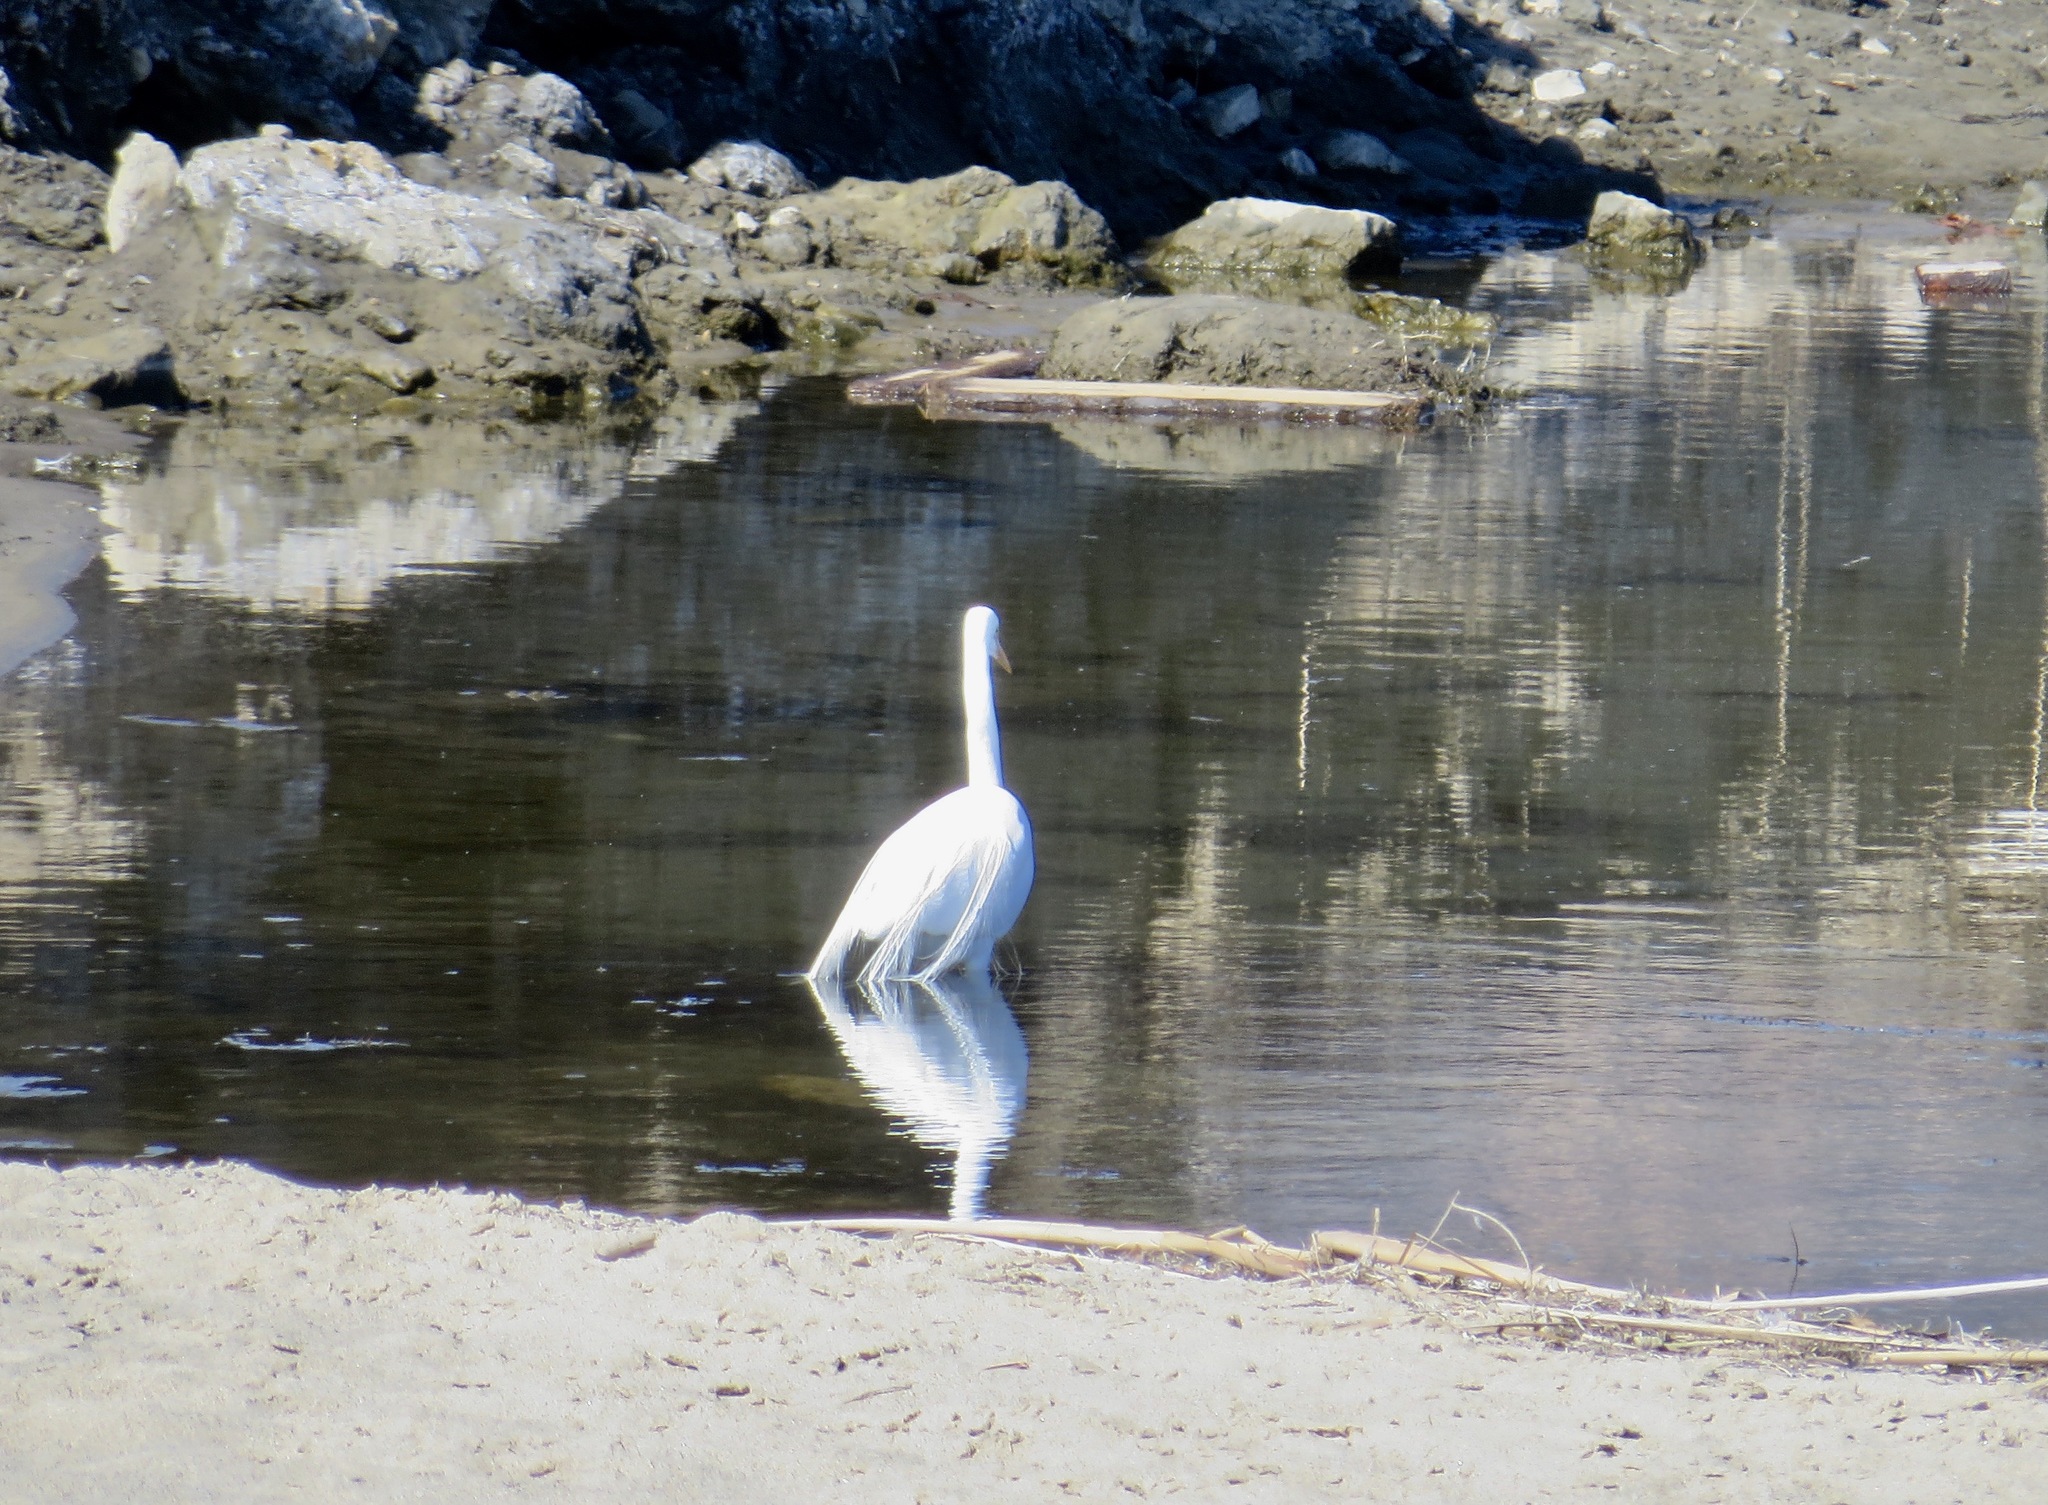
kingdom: Animalia
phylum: Chordata
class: Aves
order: Pelecaniformes
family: Ardeidae
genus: Ardea
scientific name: Ardea alba
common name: Great egret
